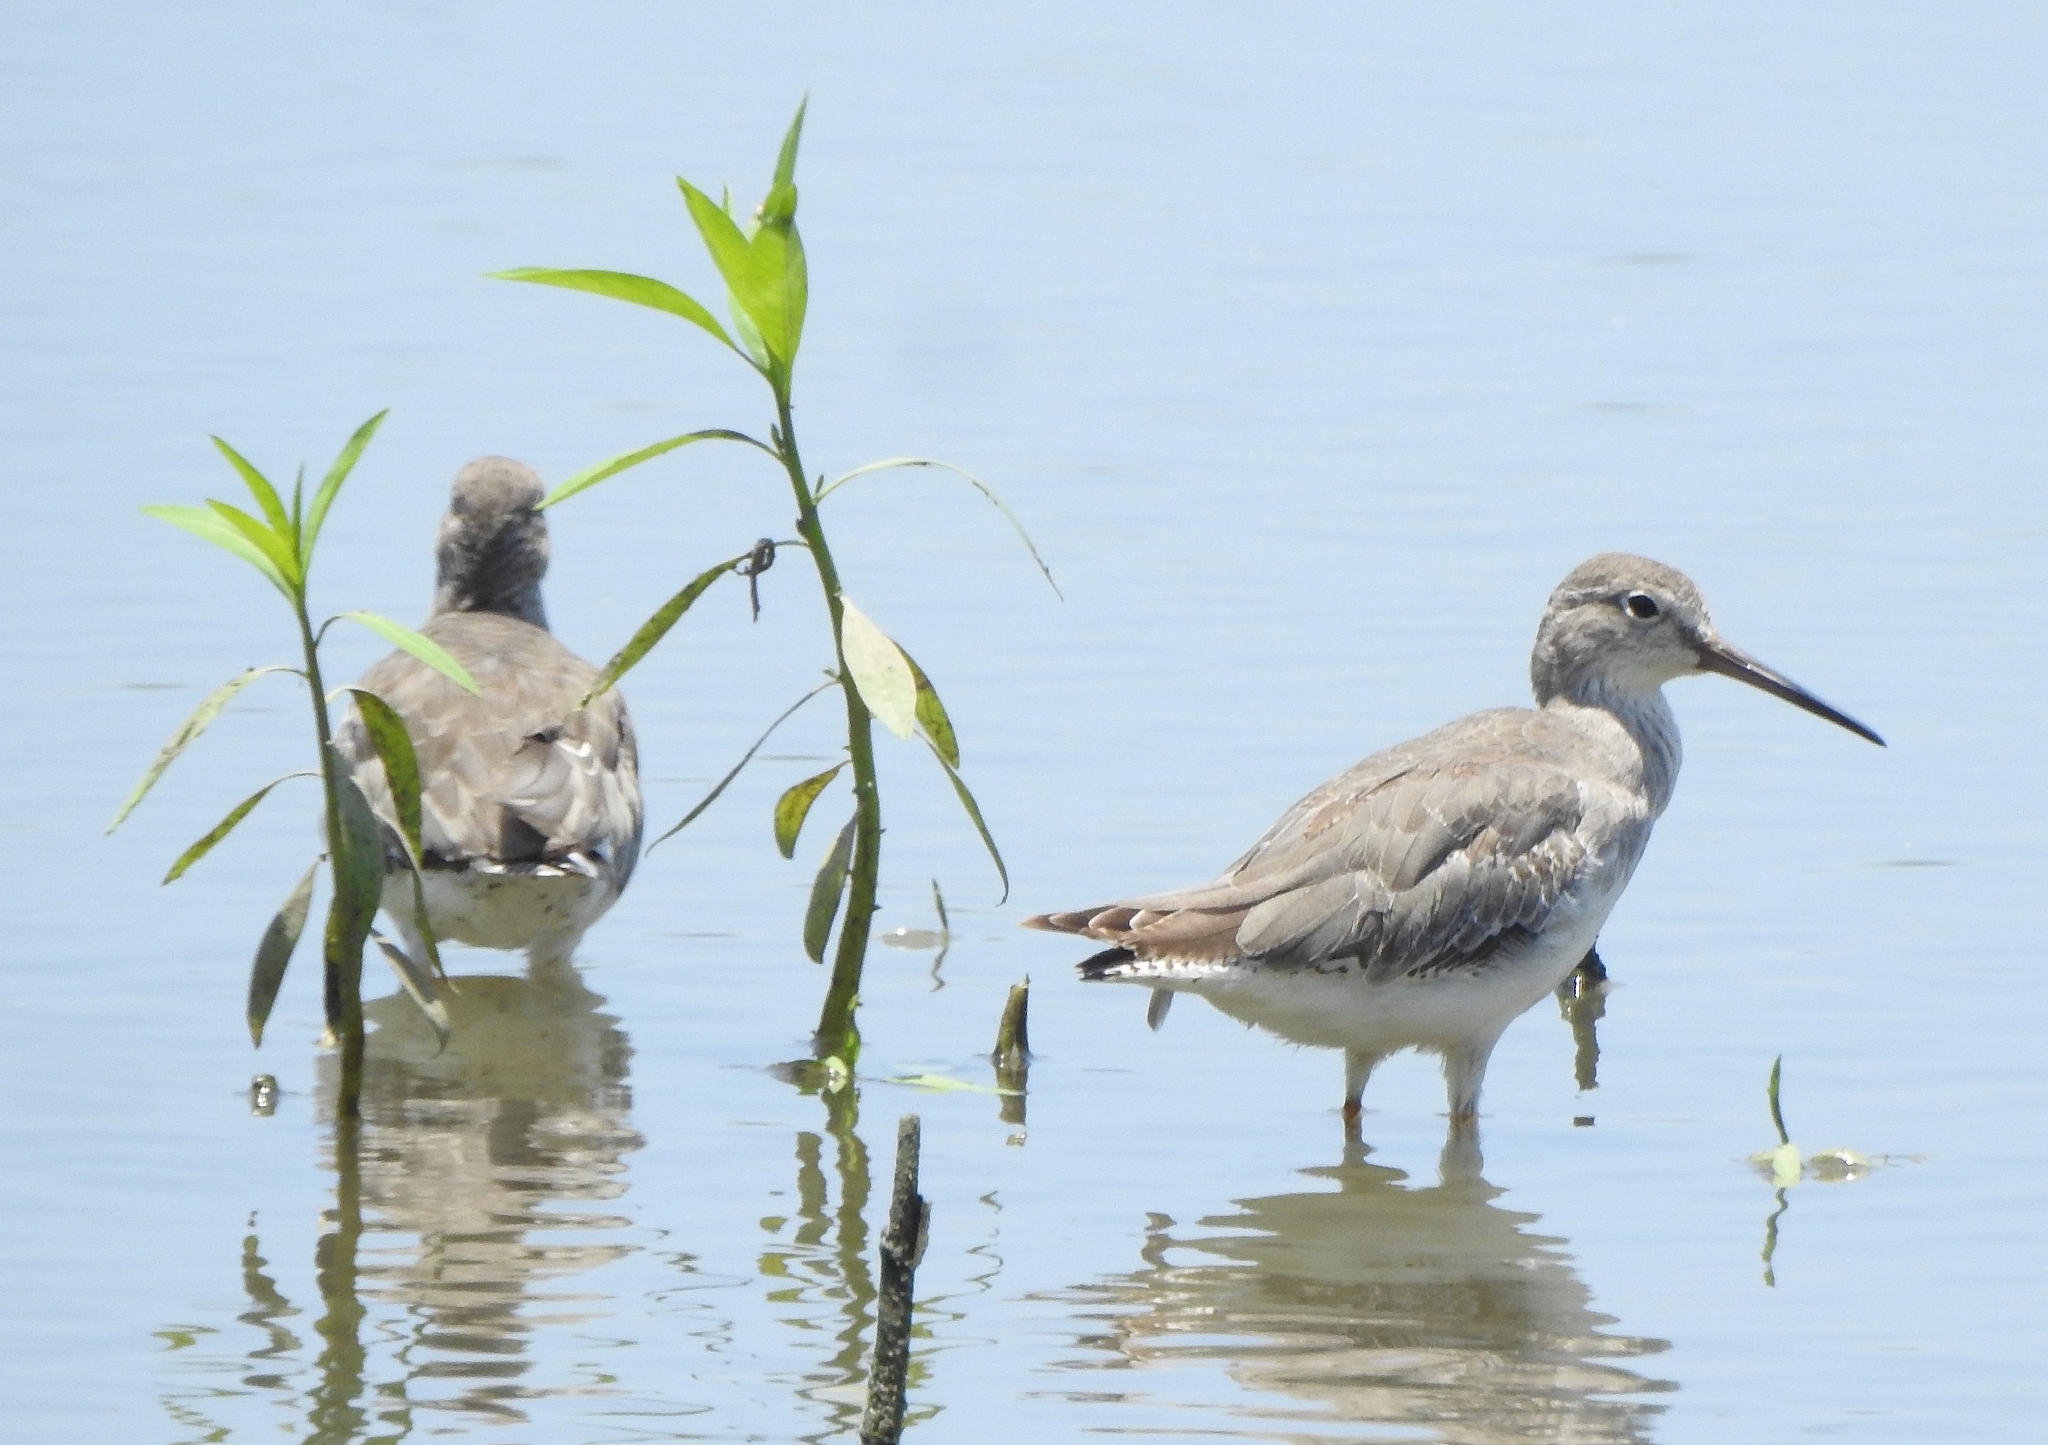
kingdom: Animalia
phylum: Chordata
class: Aves
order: Charadriiformes
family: Scolopacidae
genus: Tringa
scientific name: Tringa totanus
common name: Common redshank
